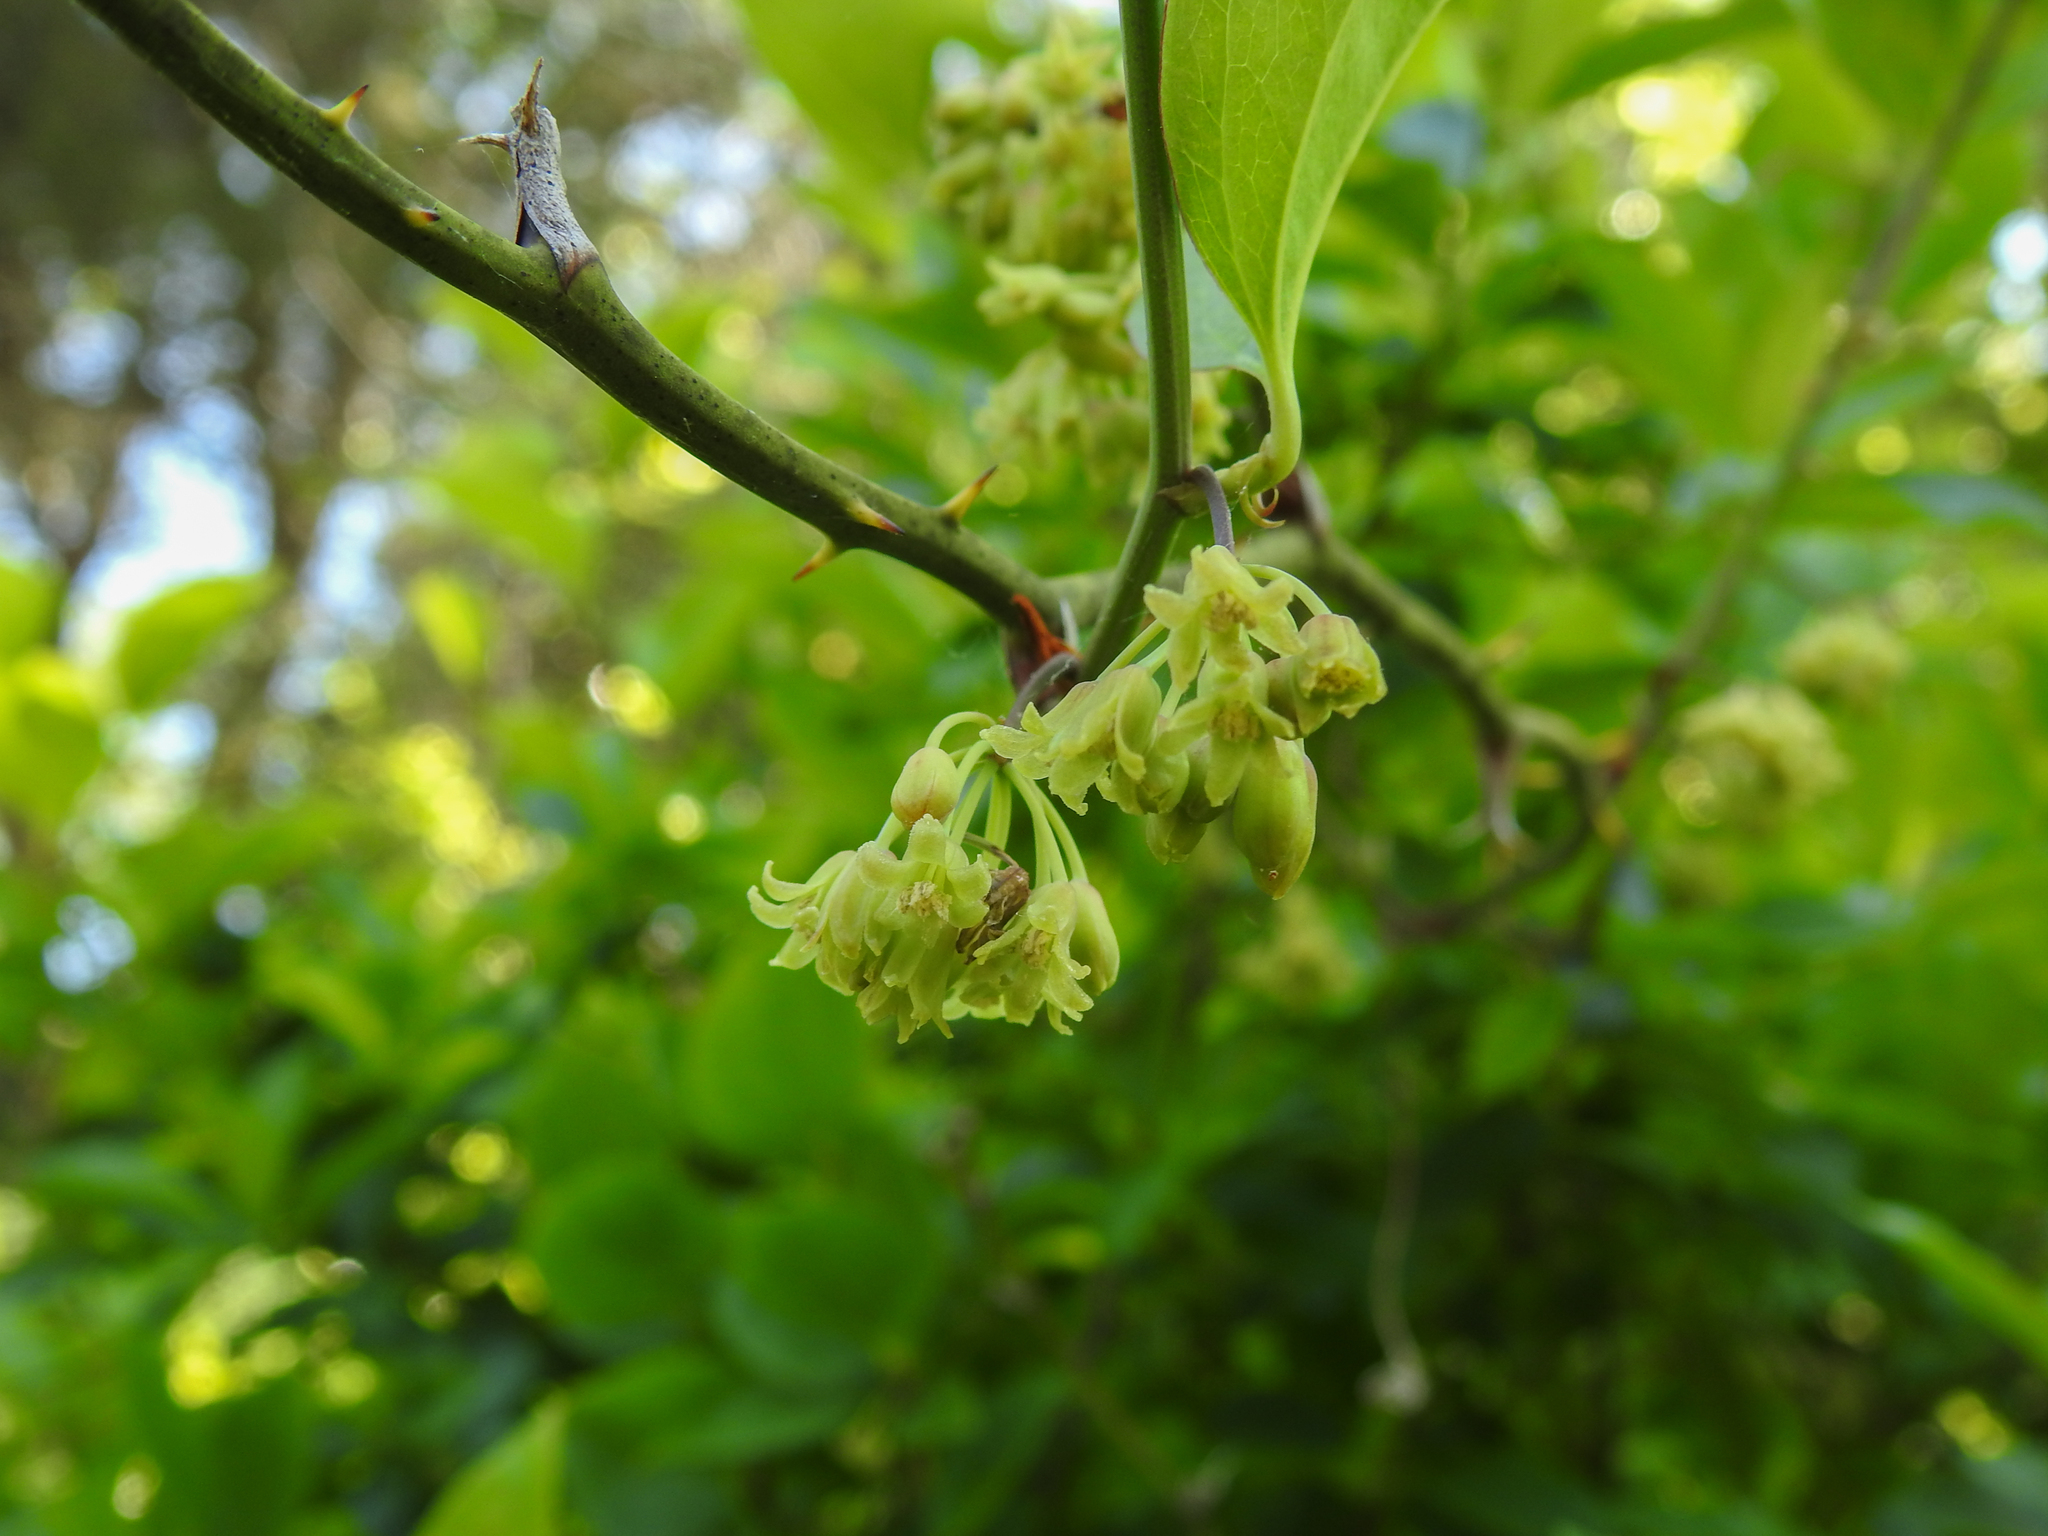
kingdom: Plantae
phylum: Tracheophyta
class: Liliopsida
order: Liliales
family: Smilacaceae
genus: Smilax
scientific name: Smilax rotundifolia
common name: Bullbriar
